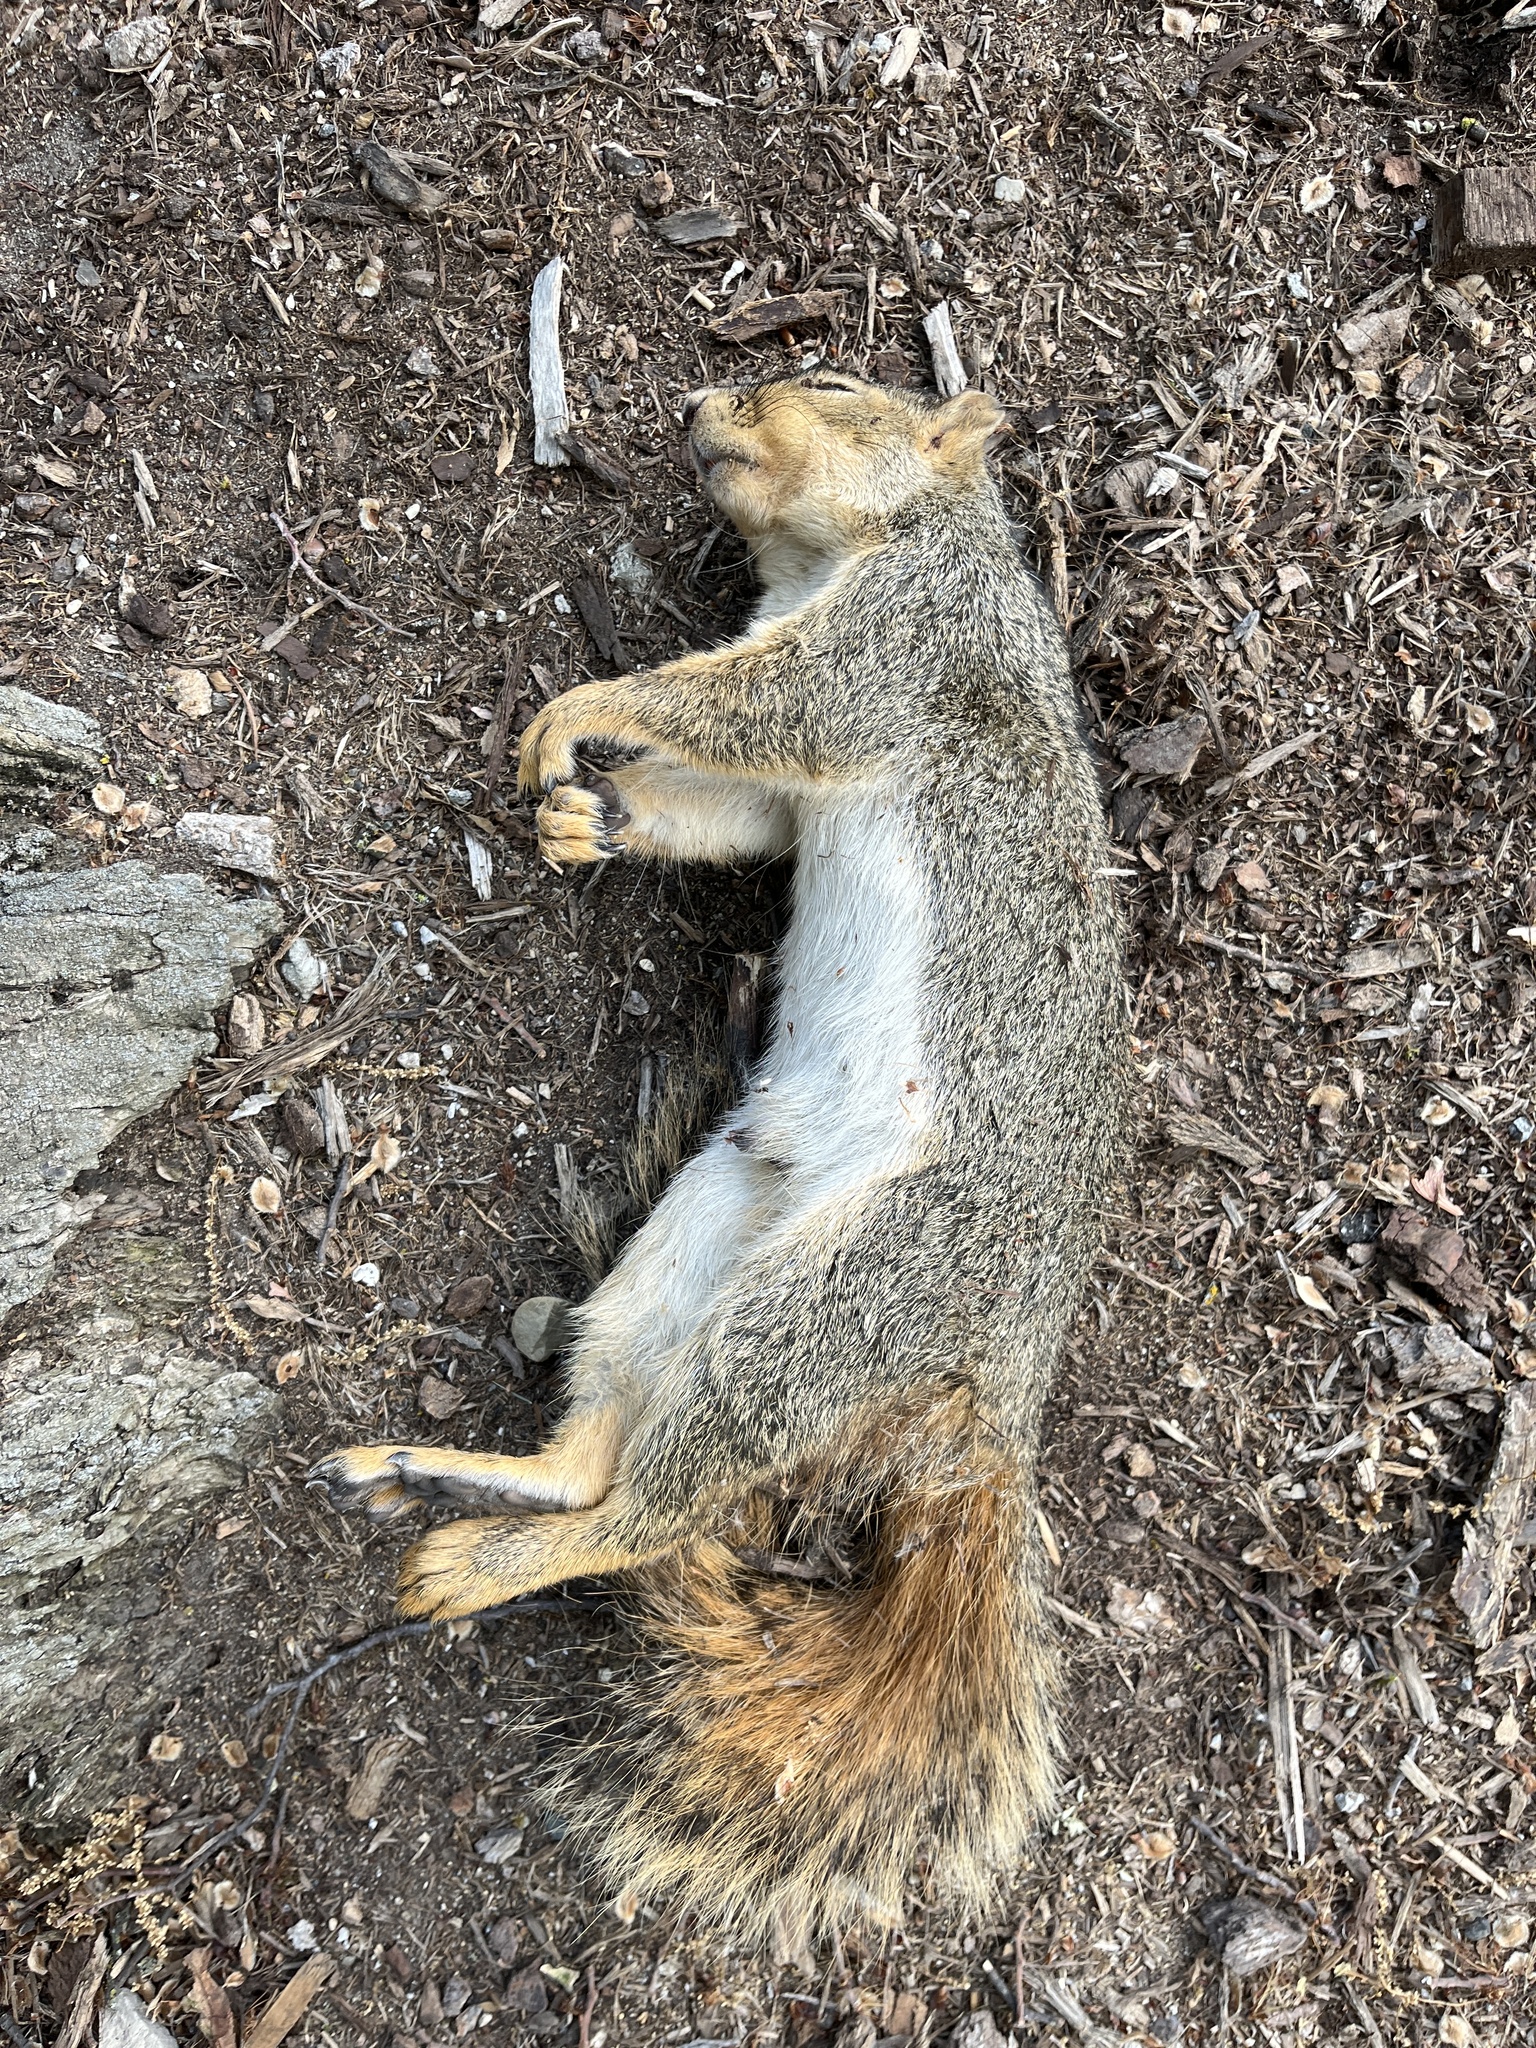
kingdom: Animalia
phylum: Chordata
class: Mammalia
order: Rodentia
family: Sciuridae
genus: Sciurus
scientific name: Sciurus niger
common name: Fox squirrel
